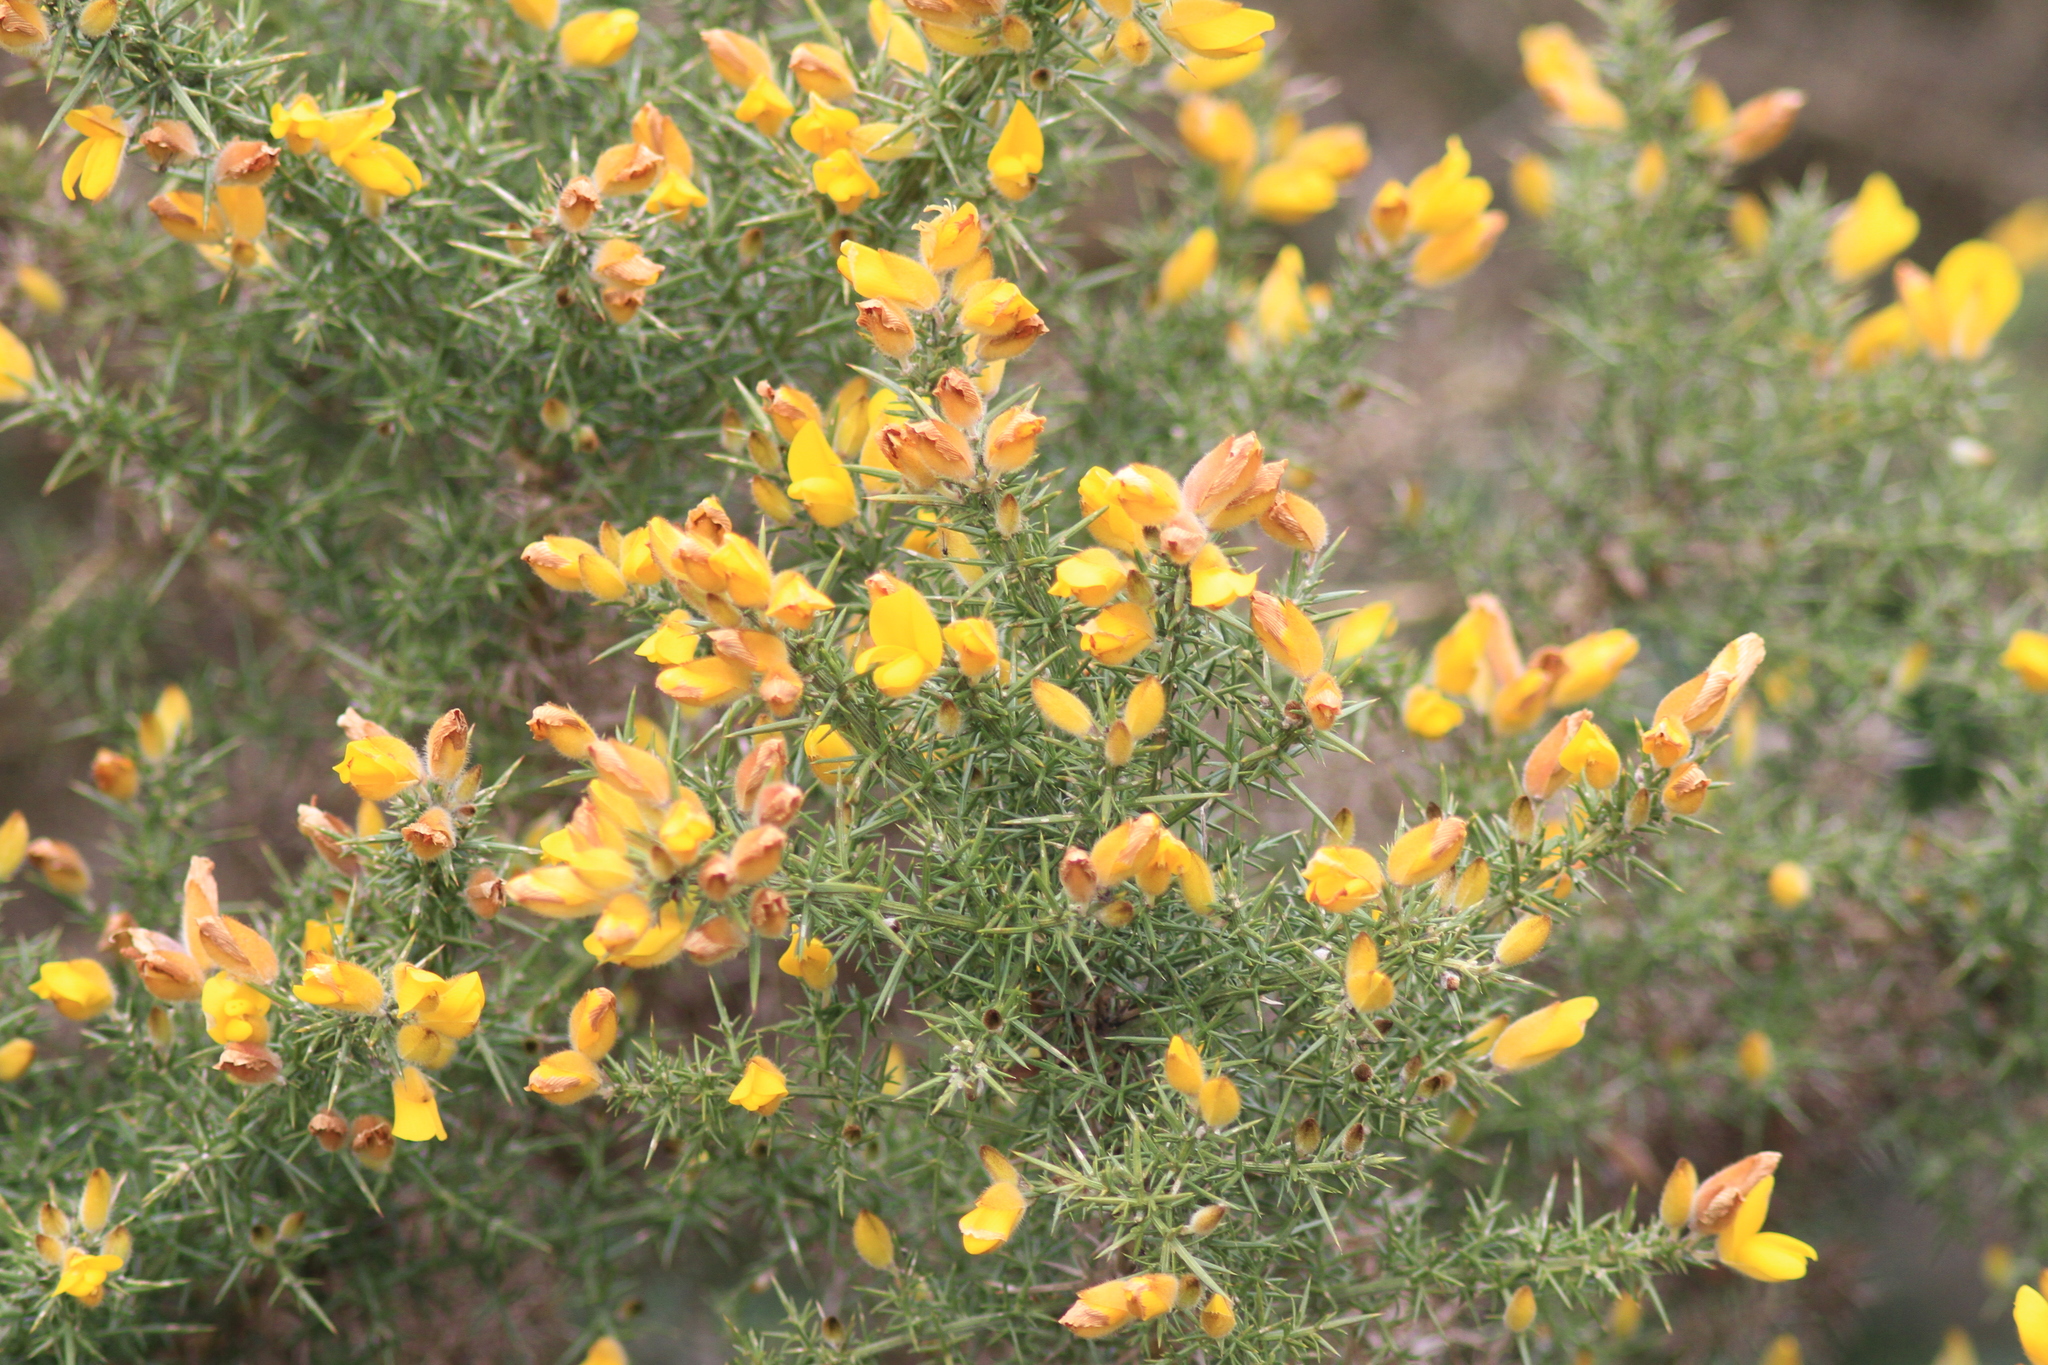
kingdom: Plantae
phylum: Tracheophyta
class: Magnoliopsida
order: Fabales
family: Fabaceae
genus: Ulex
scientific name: Ulex europaeus
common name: Common gorse
